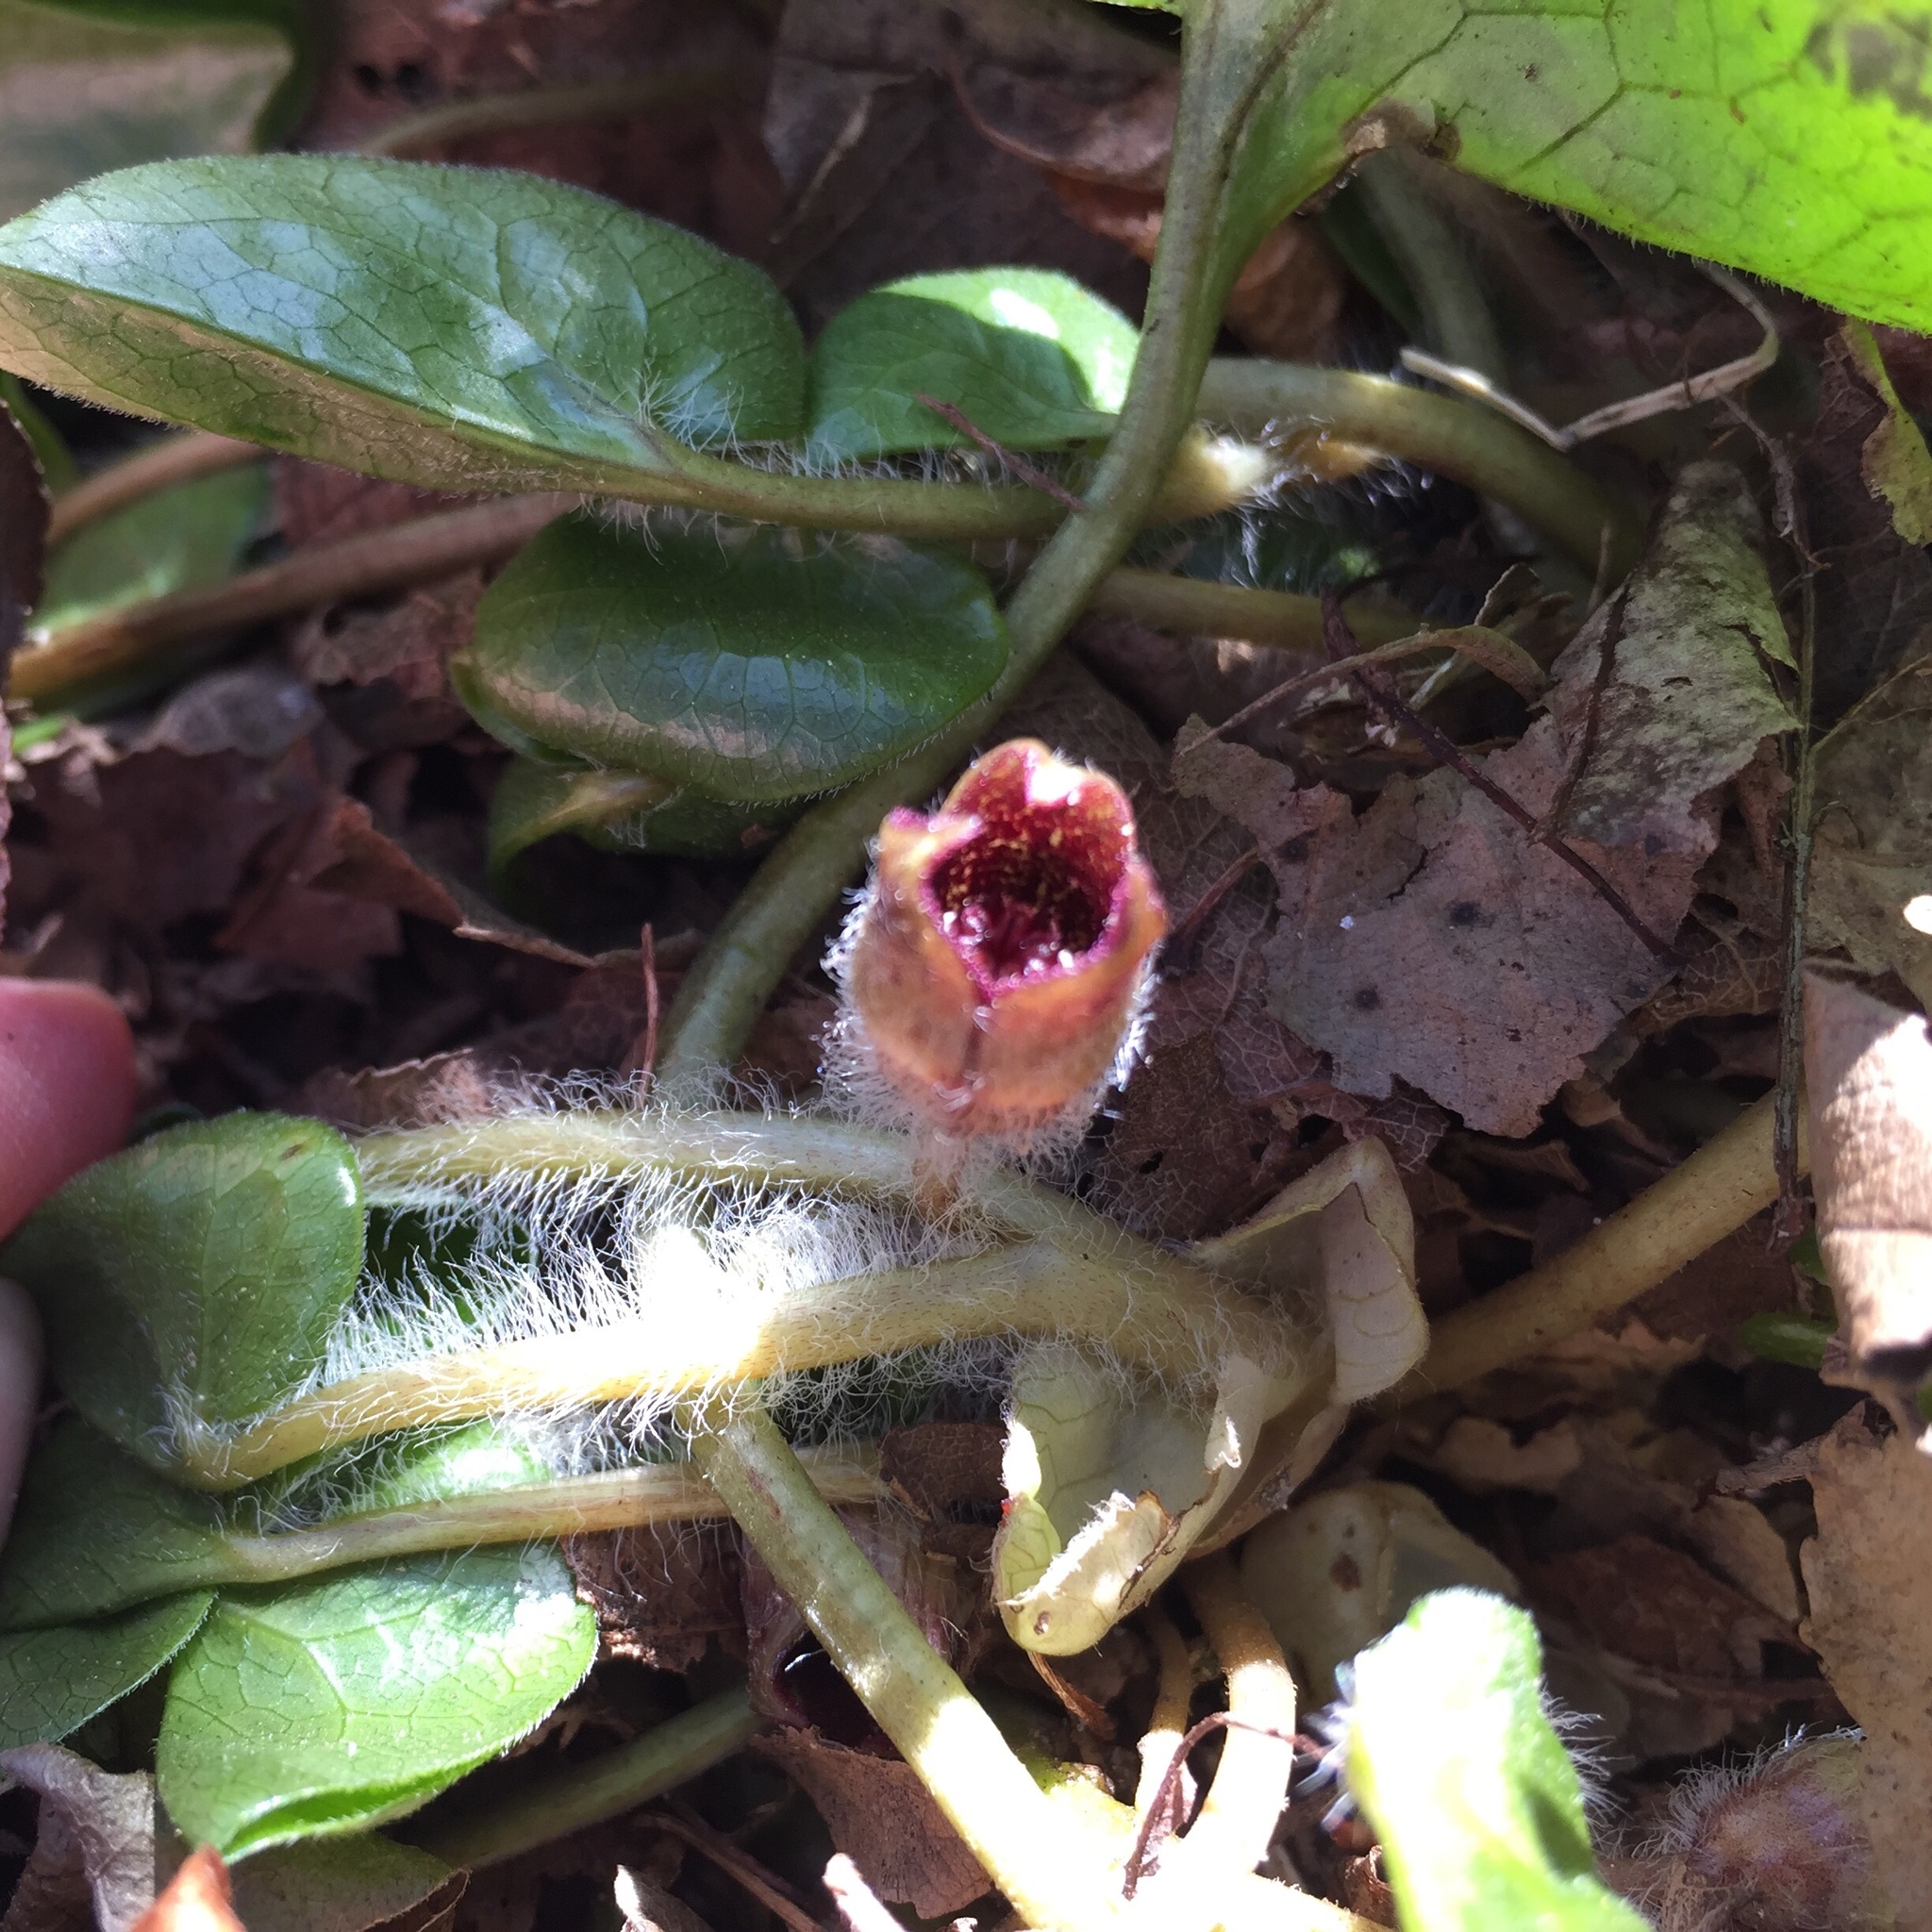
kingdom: Plantae
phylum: Tracheophyta
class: Magnoliopsida
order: Piperales
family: Aristolochiaceae
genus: Asarum
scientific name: Asarum europaeum
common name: Asarabacca
